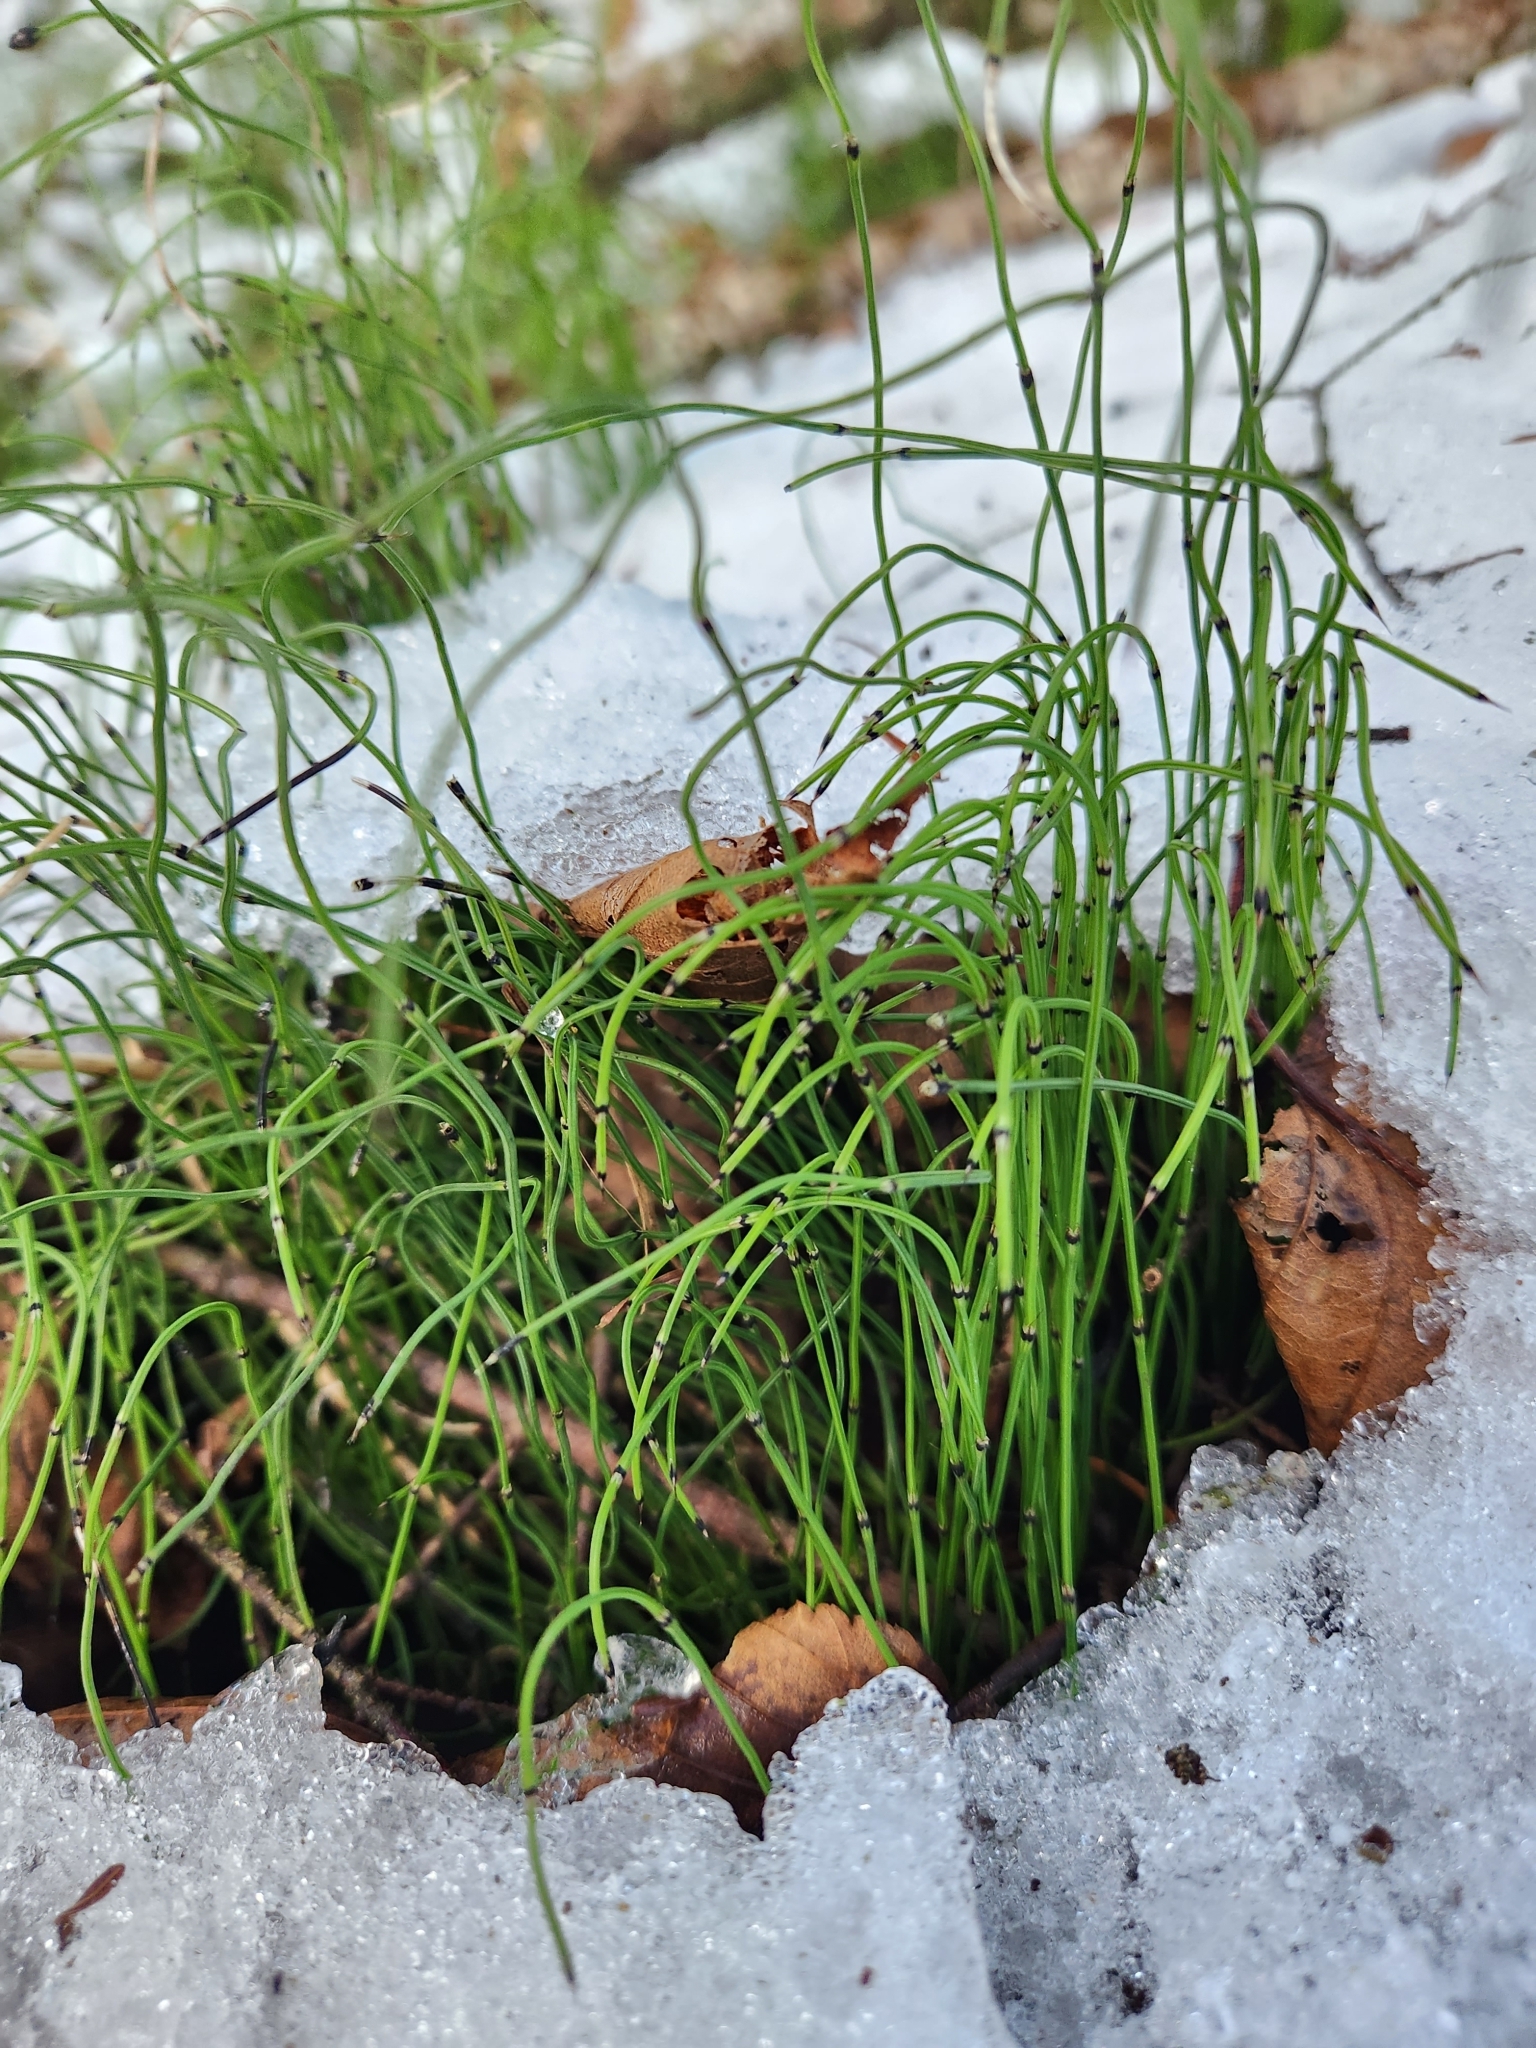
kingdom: Plantae
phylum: Tracheophyta
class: Polypodiopsida
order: Equisetales
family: Equisetaceae
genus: Equisetum
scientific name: Equisetum scirpoides
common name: Delicate horsetail
